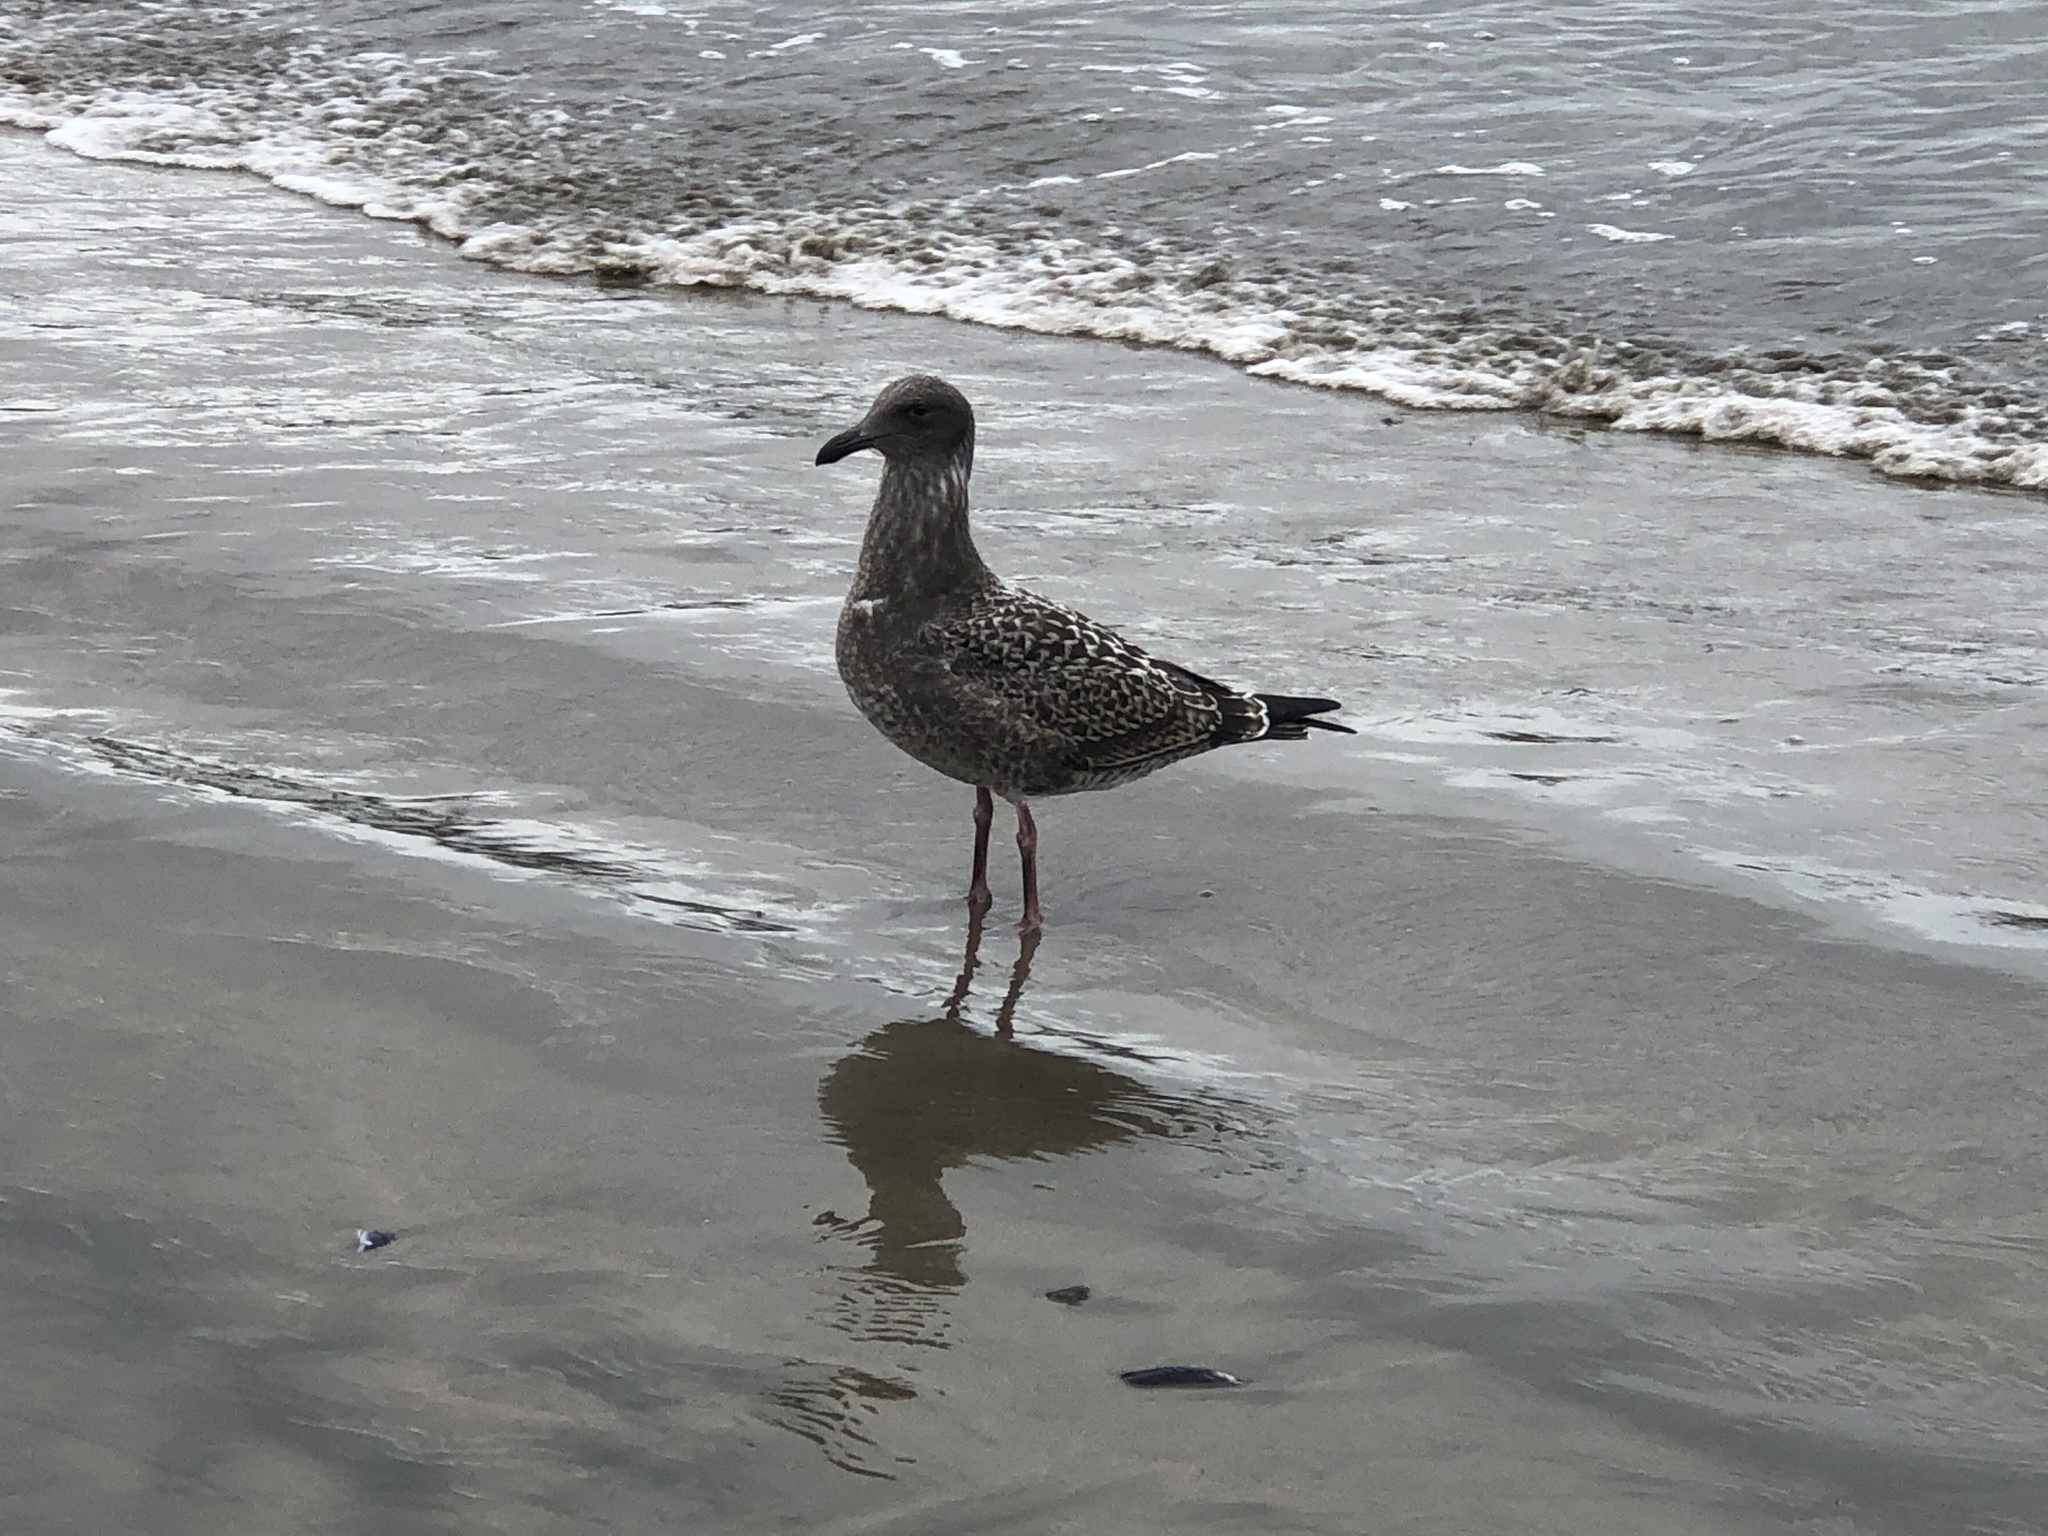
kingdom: Animalia
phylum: Chordata
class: Aves
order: Charadriiformes
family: Laridae
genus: Larus
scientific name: Larus occidentalis
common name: Western gull
